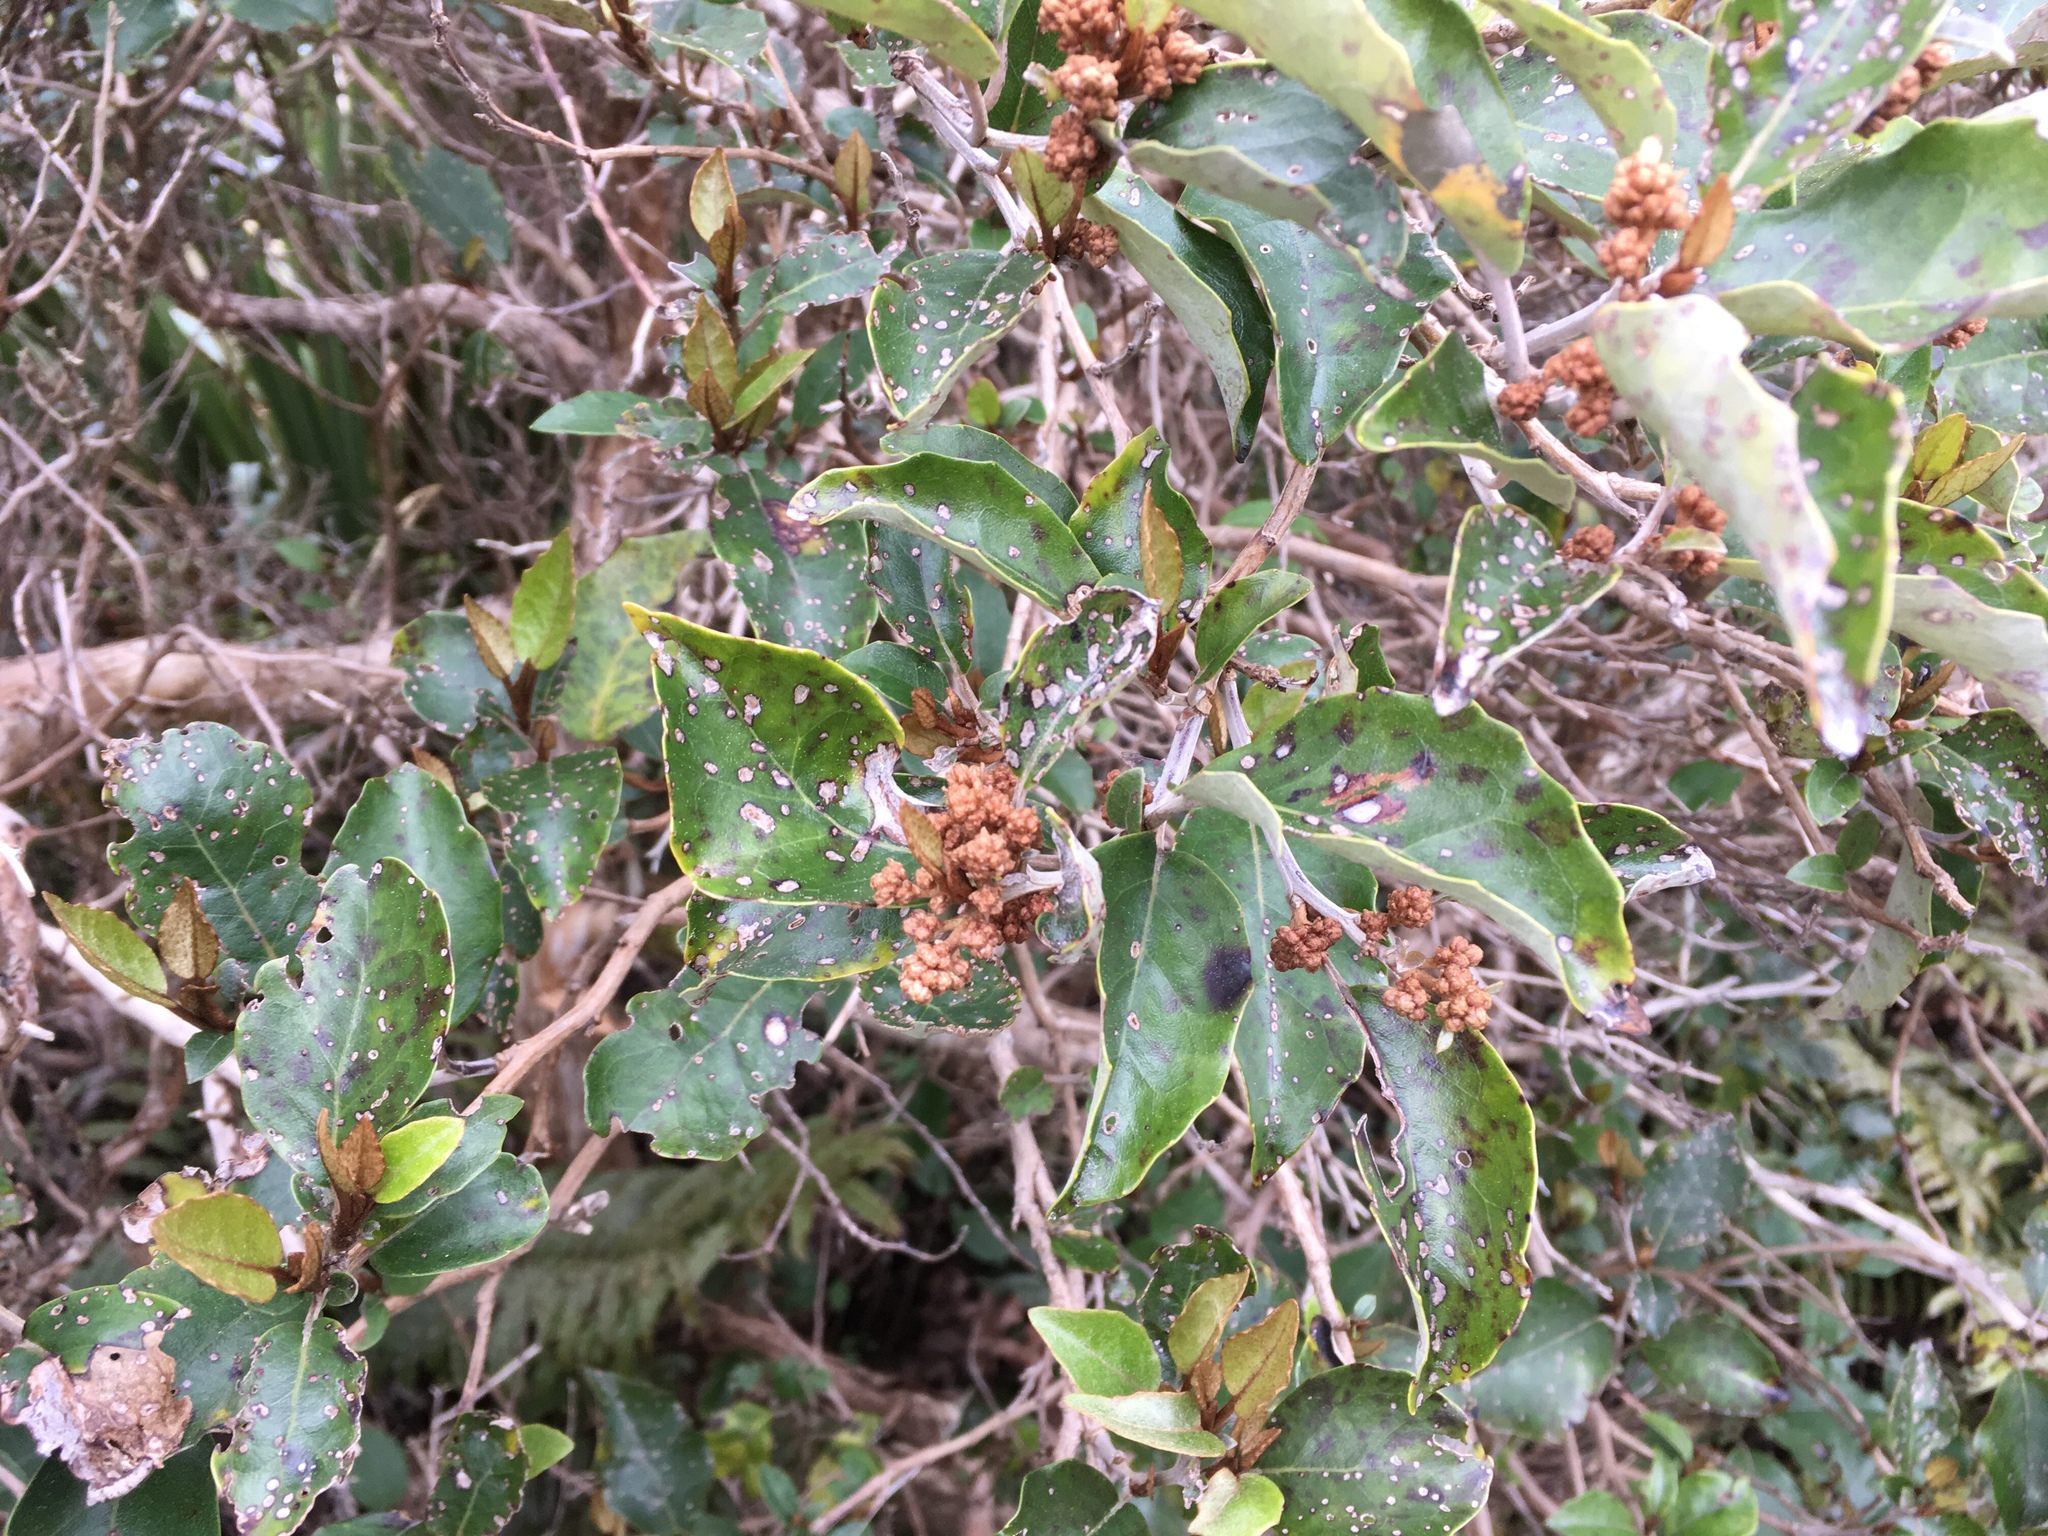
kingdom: Plantae
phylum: Tracheophyta
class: Magnoliopsida
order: Asterales
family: Asteraceae
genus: Olearia
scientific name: Olearia arborescens
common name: Glossy tree daisy
